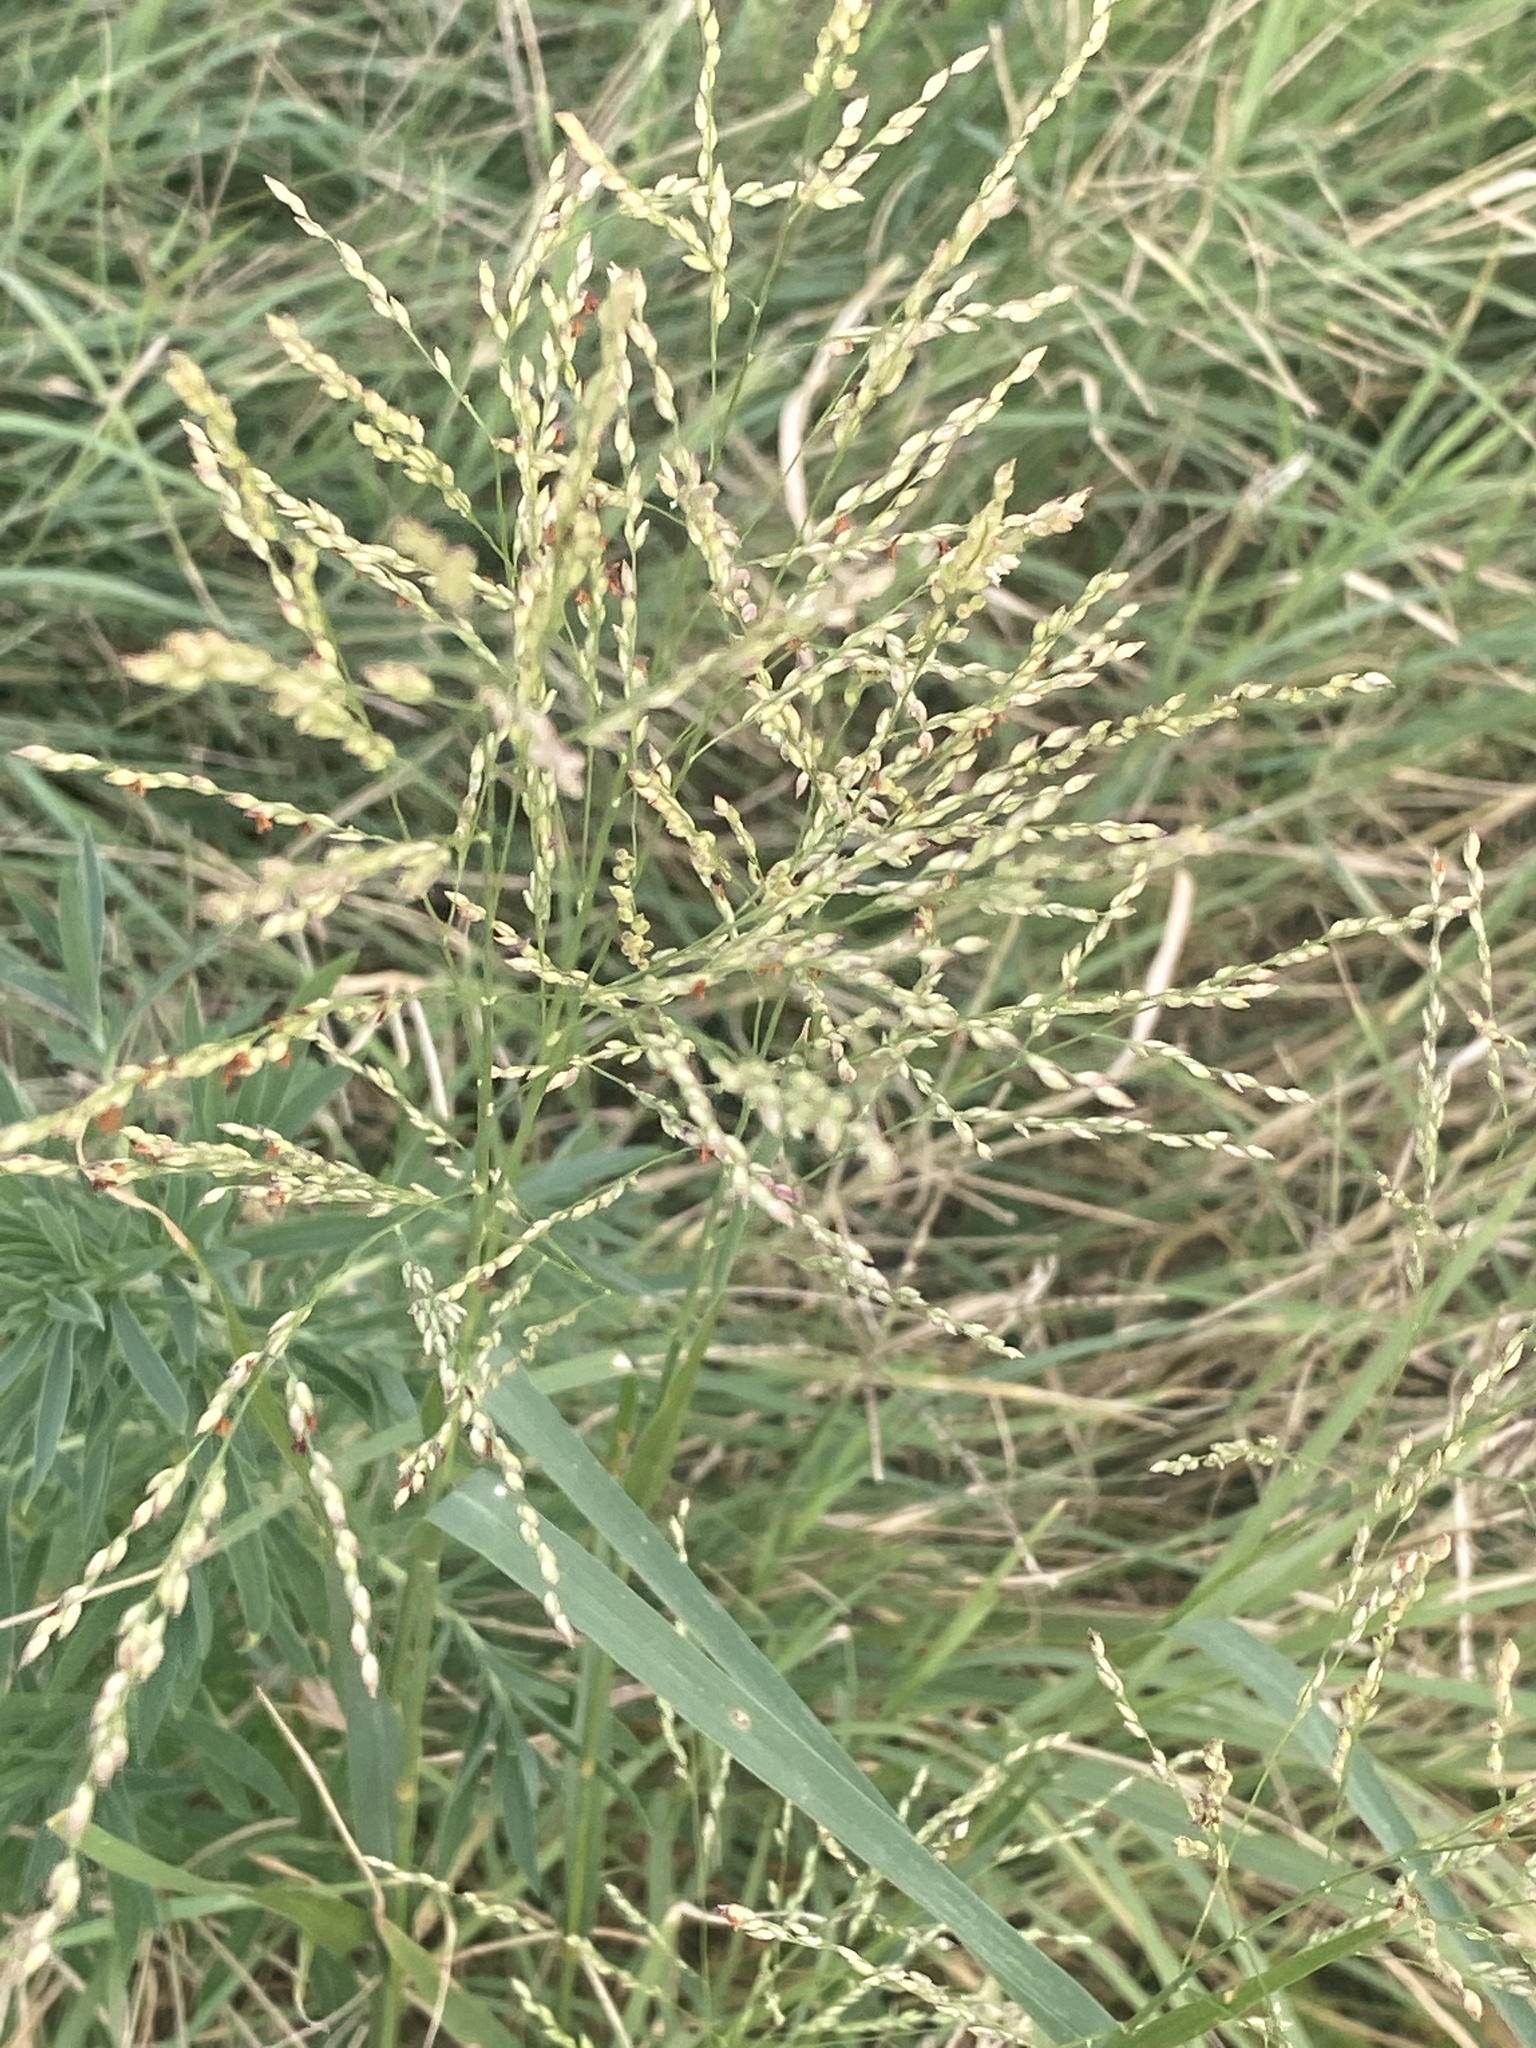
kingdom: Plantae
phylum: Tracheophyta
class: Liliopsida
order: Poales
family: Poaceae
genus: Panicum
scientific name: Panicum coloratum
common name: Kleingrass
